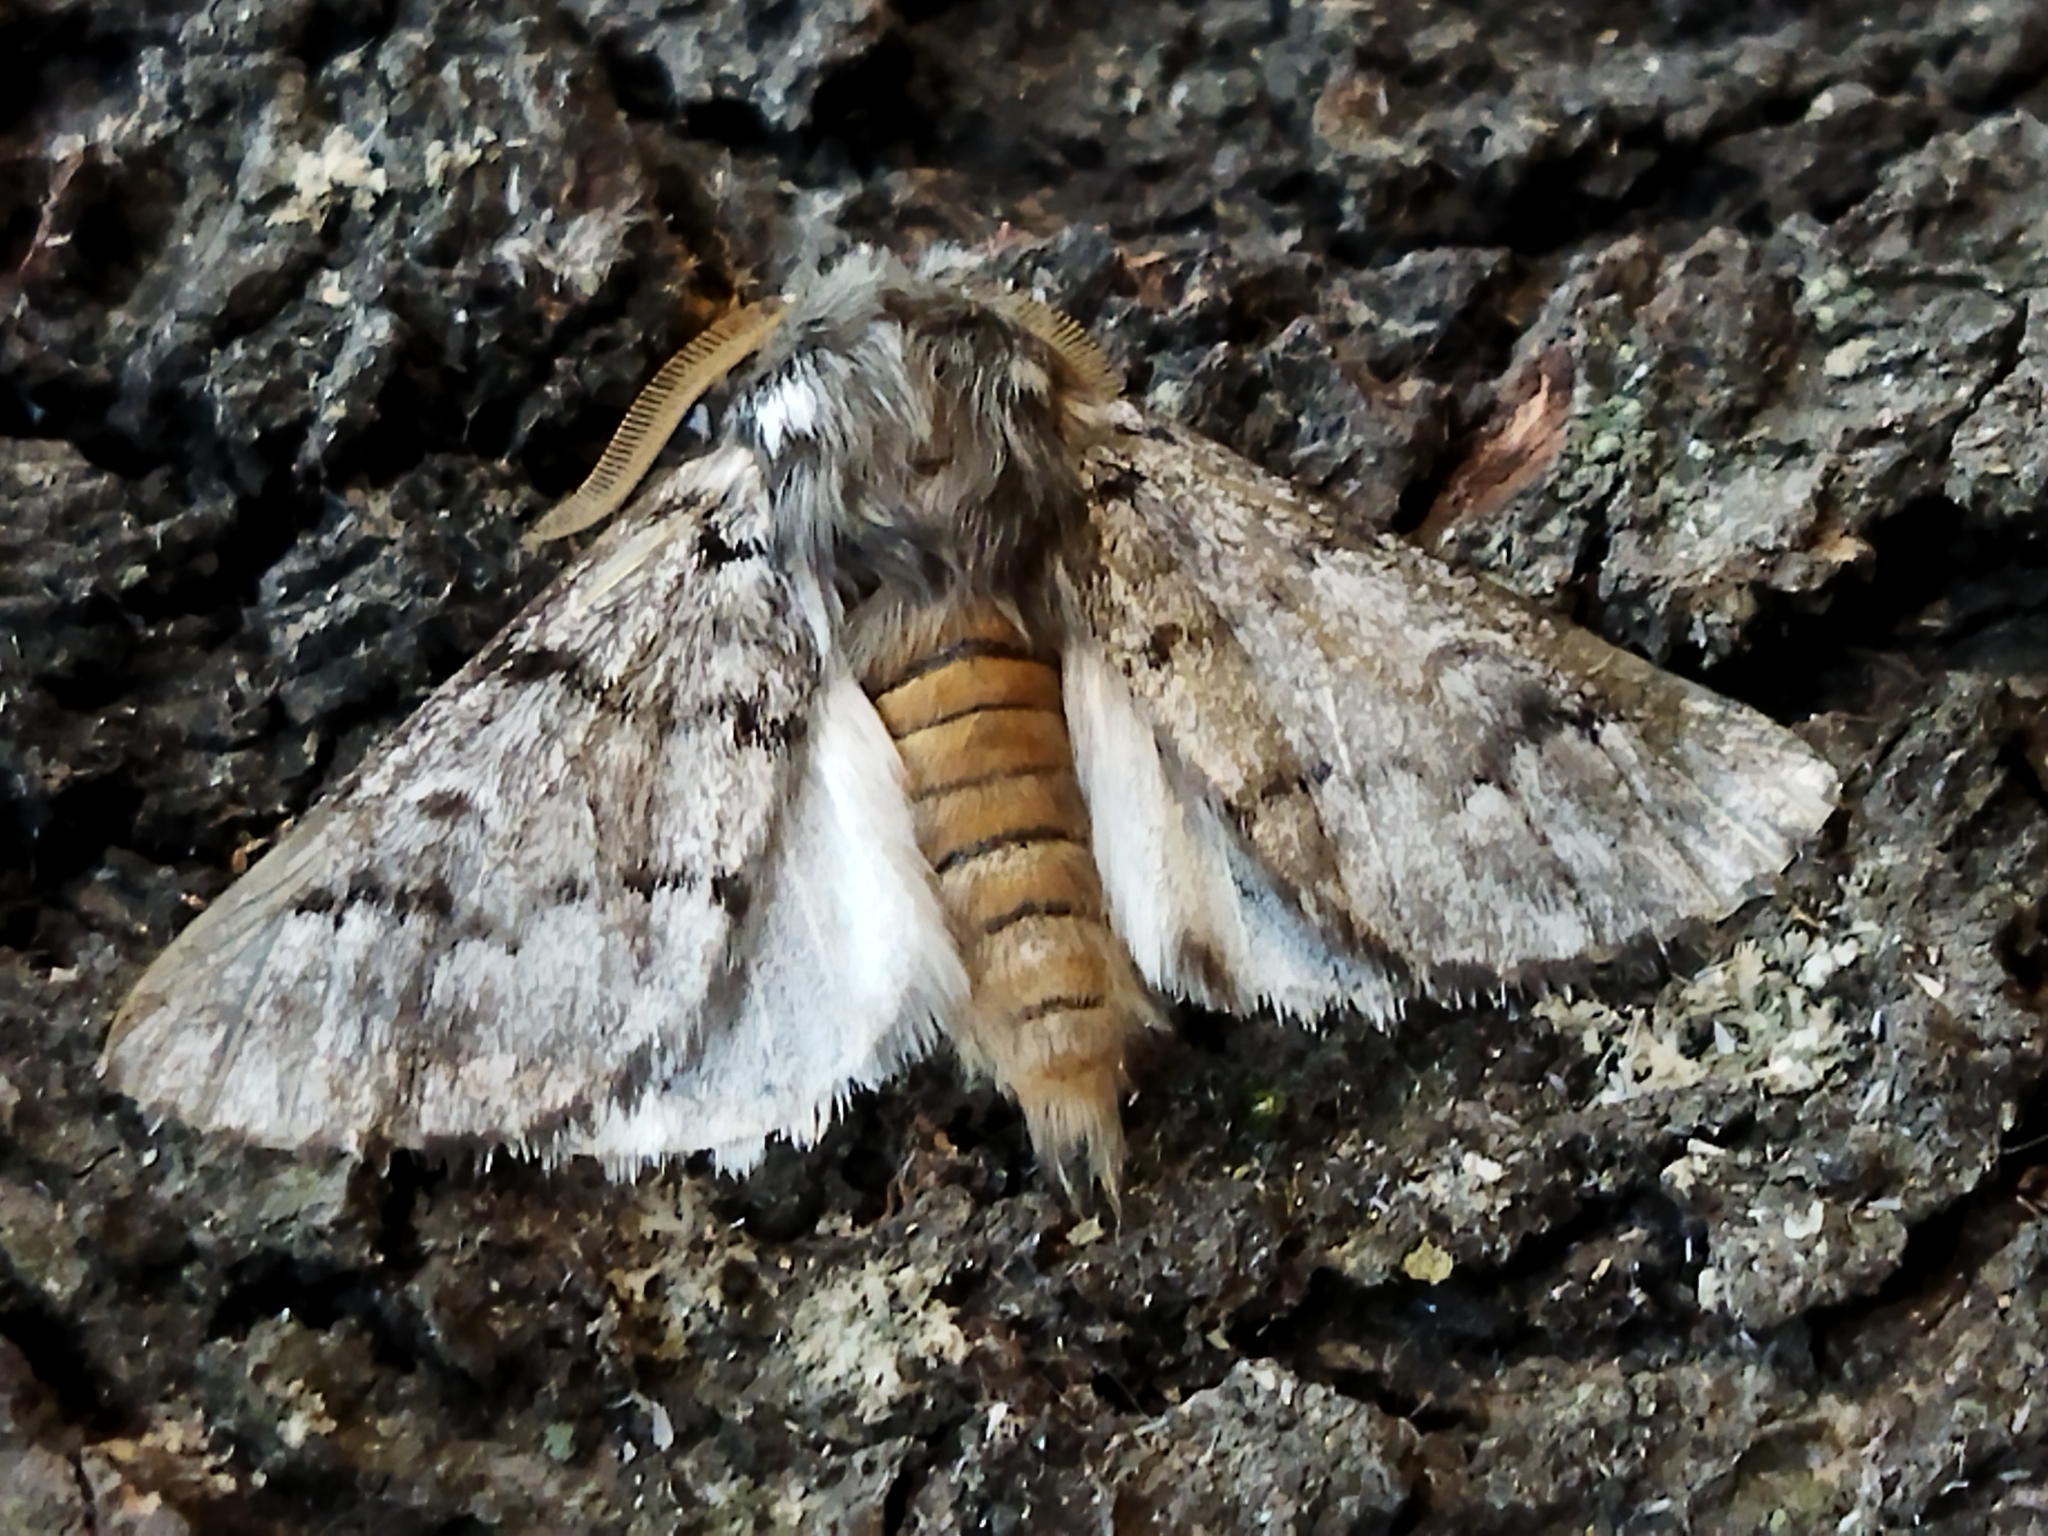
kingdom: Animalia
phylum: Arthropoda
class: Insecta
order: Lepidoptera
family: Notodontidae
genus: Thaumetopoea
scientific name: Thaumetopoea pityocampa
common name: Pine processionary
